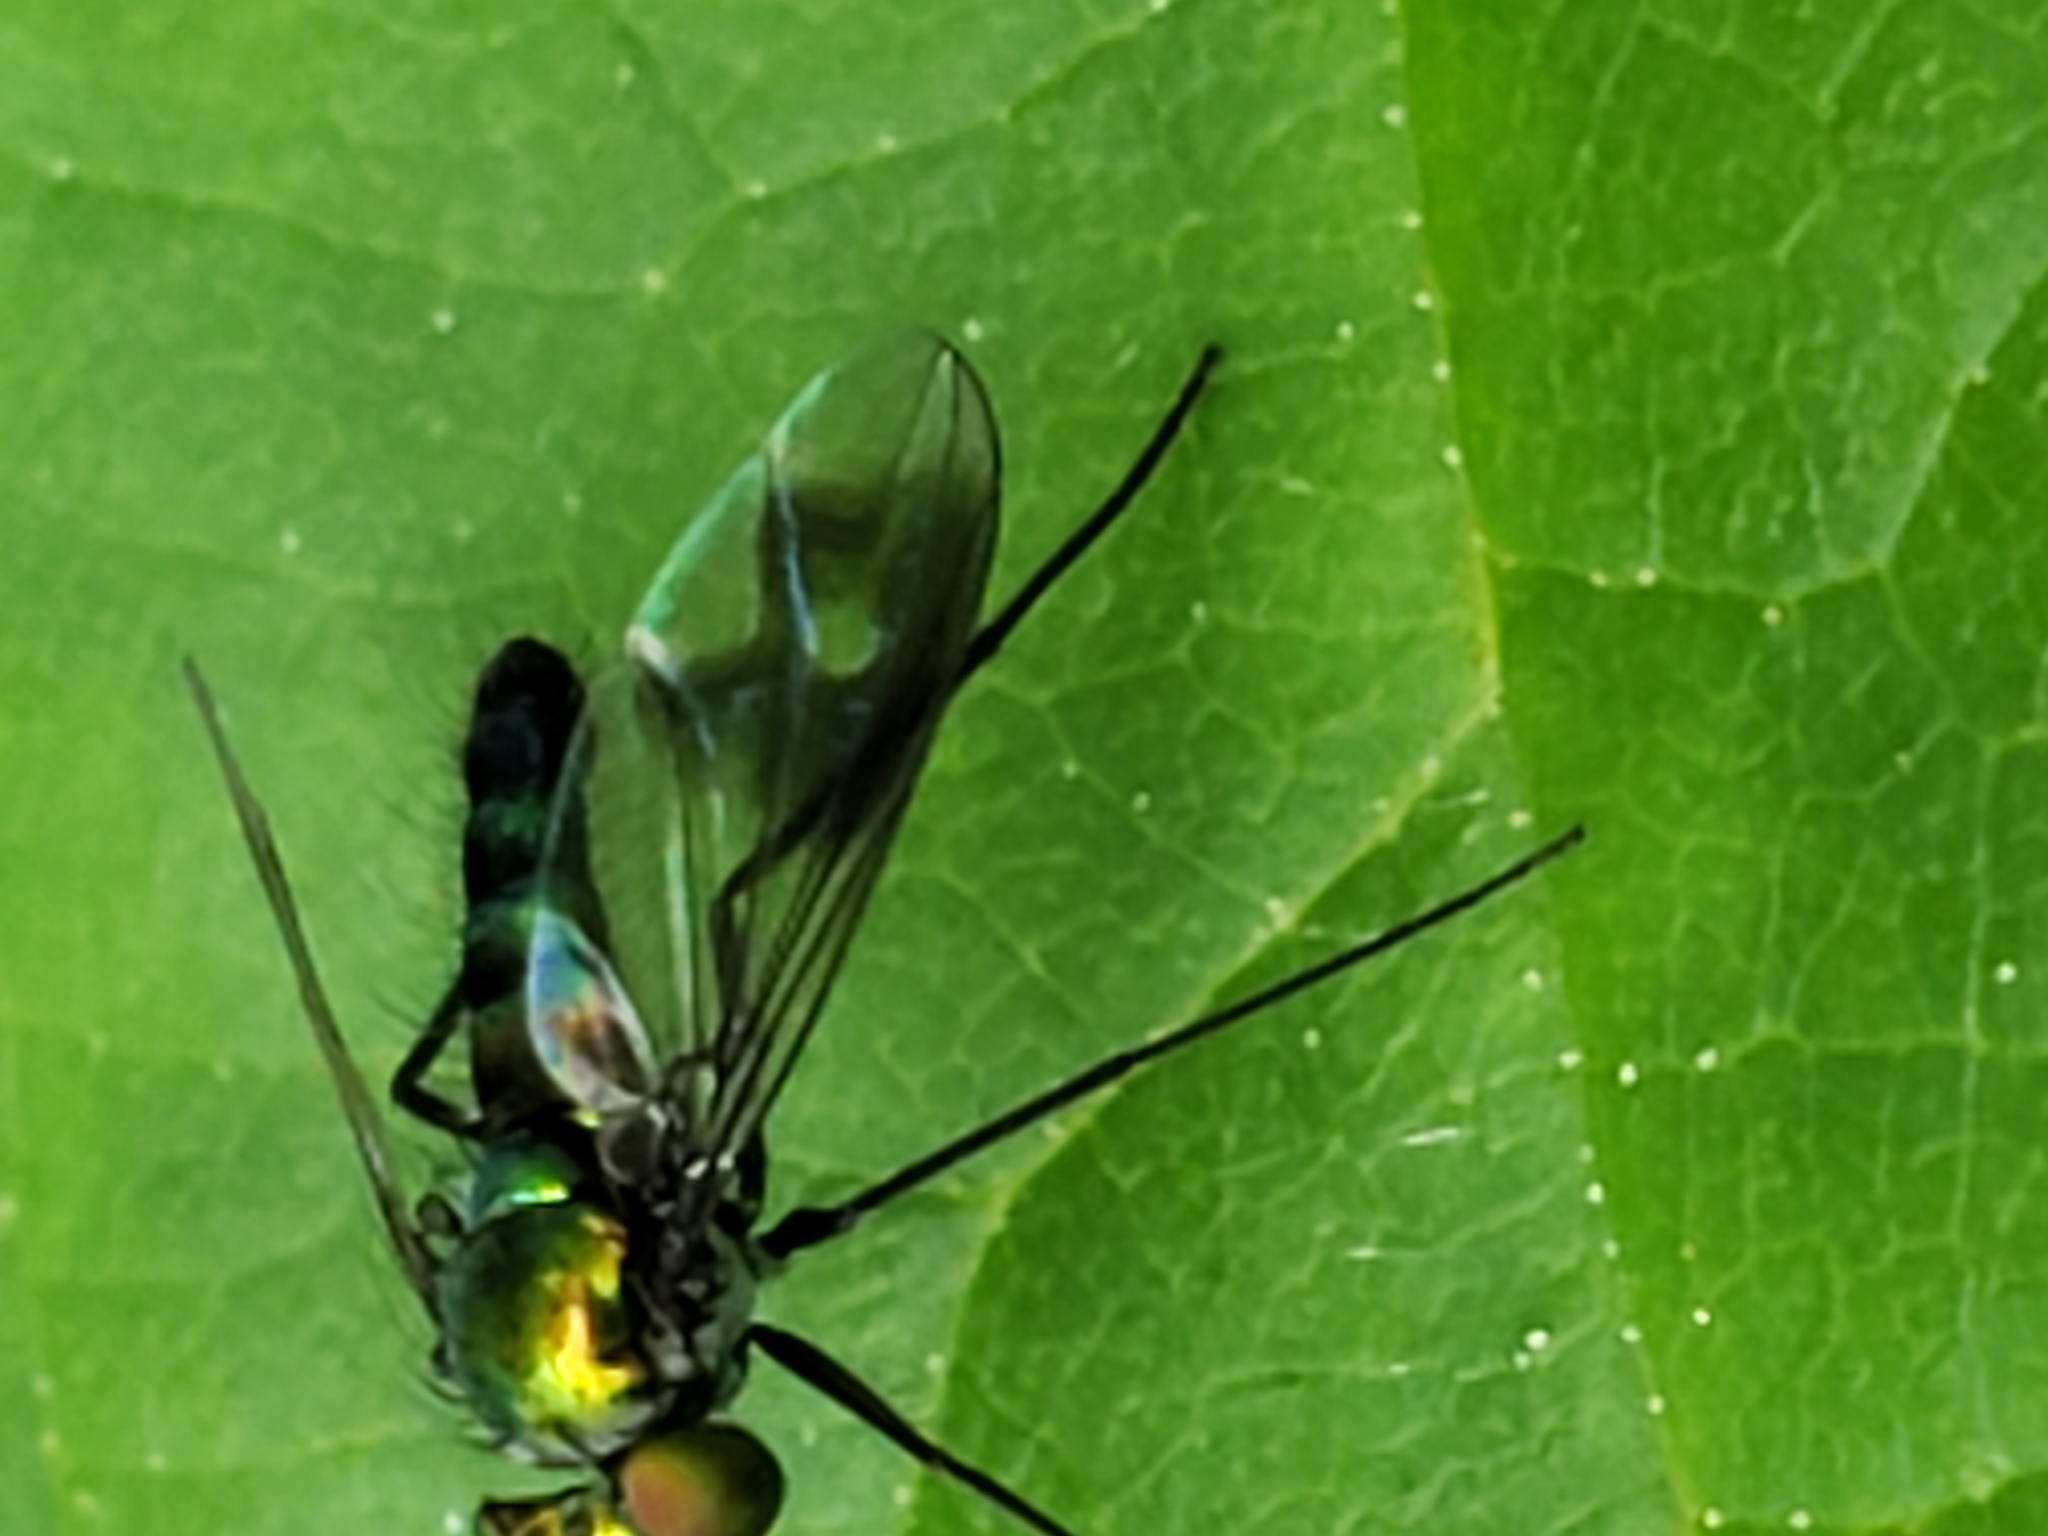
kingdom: Animalia
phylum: Arthropoda
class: Insecta
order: Diptera
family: Dolichopodidae
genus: Condylostylus
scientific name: Condylostylus patibulatus
